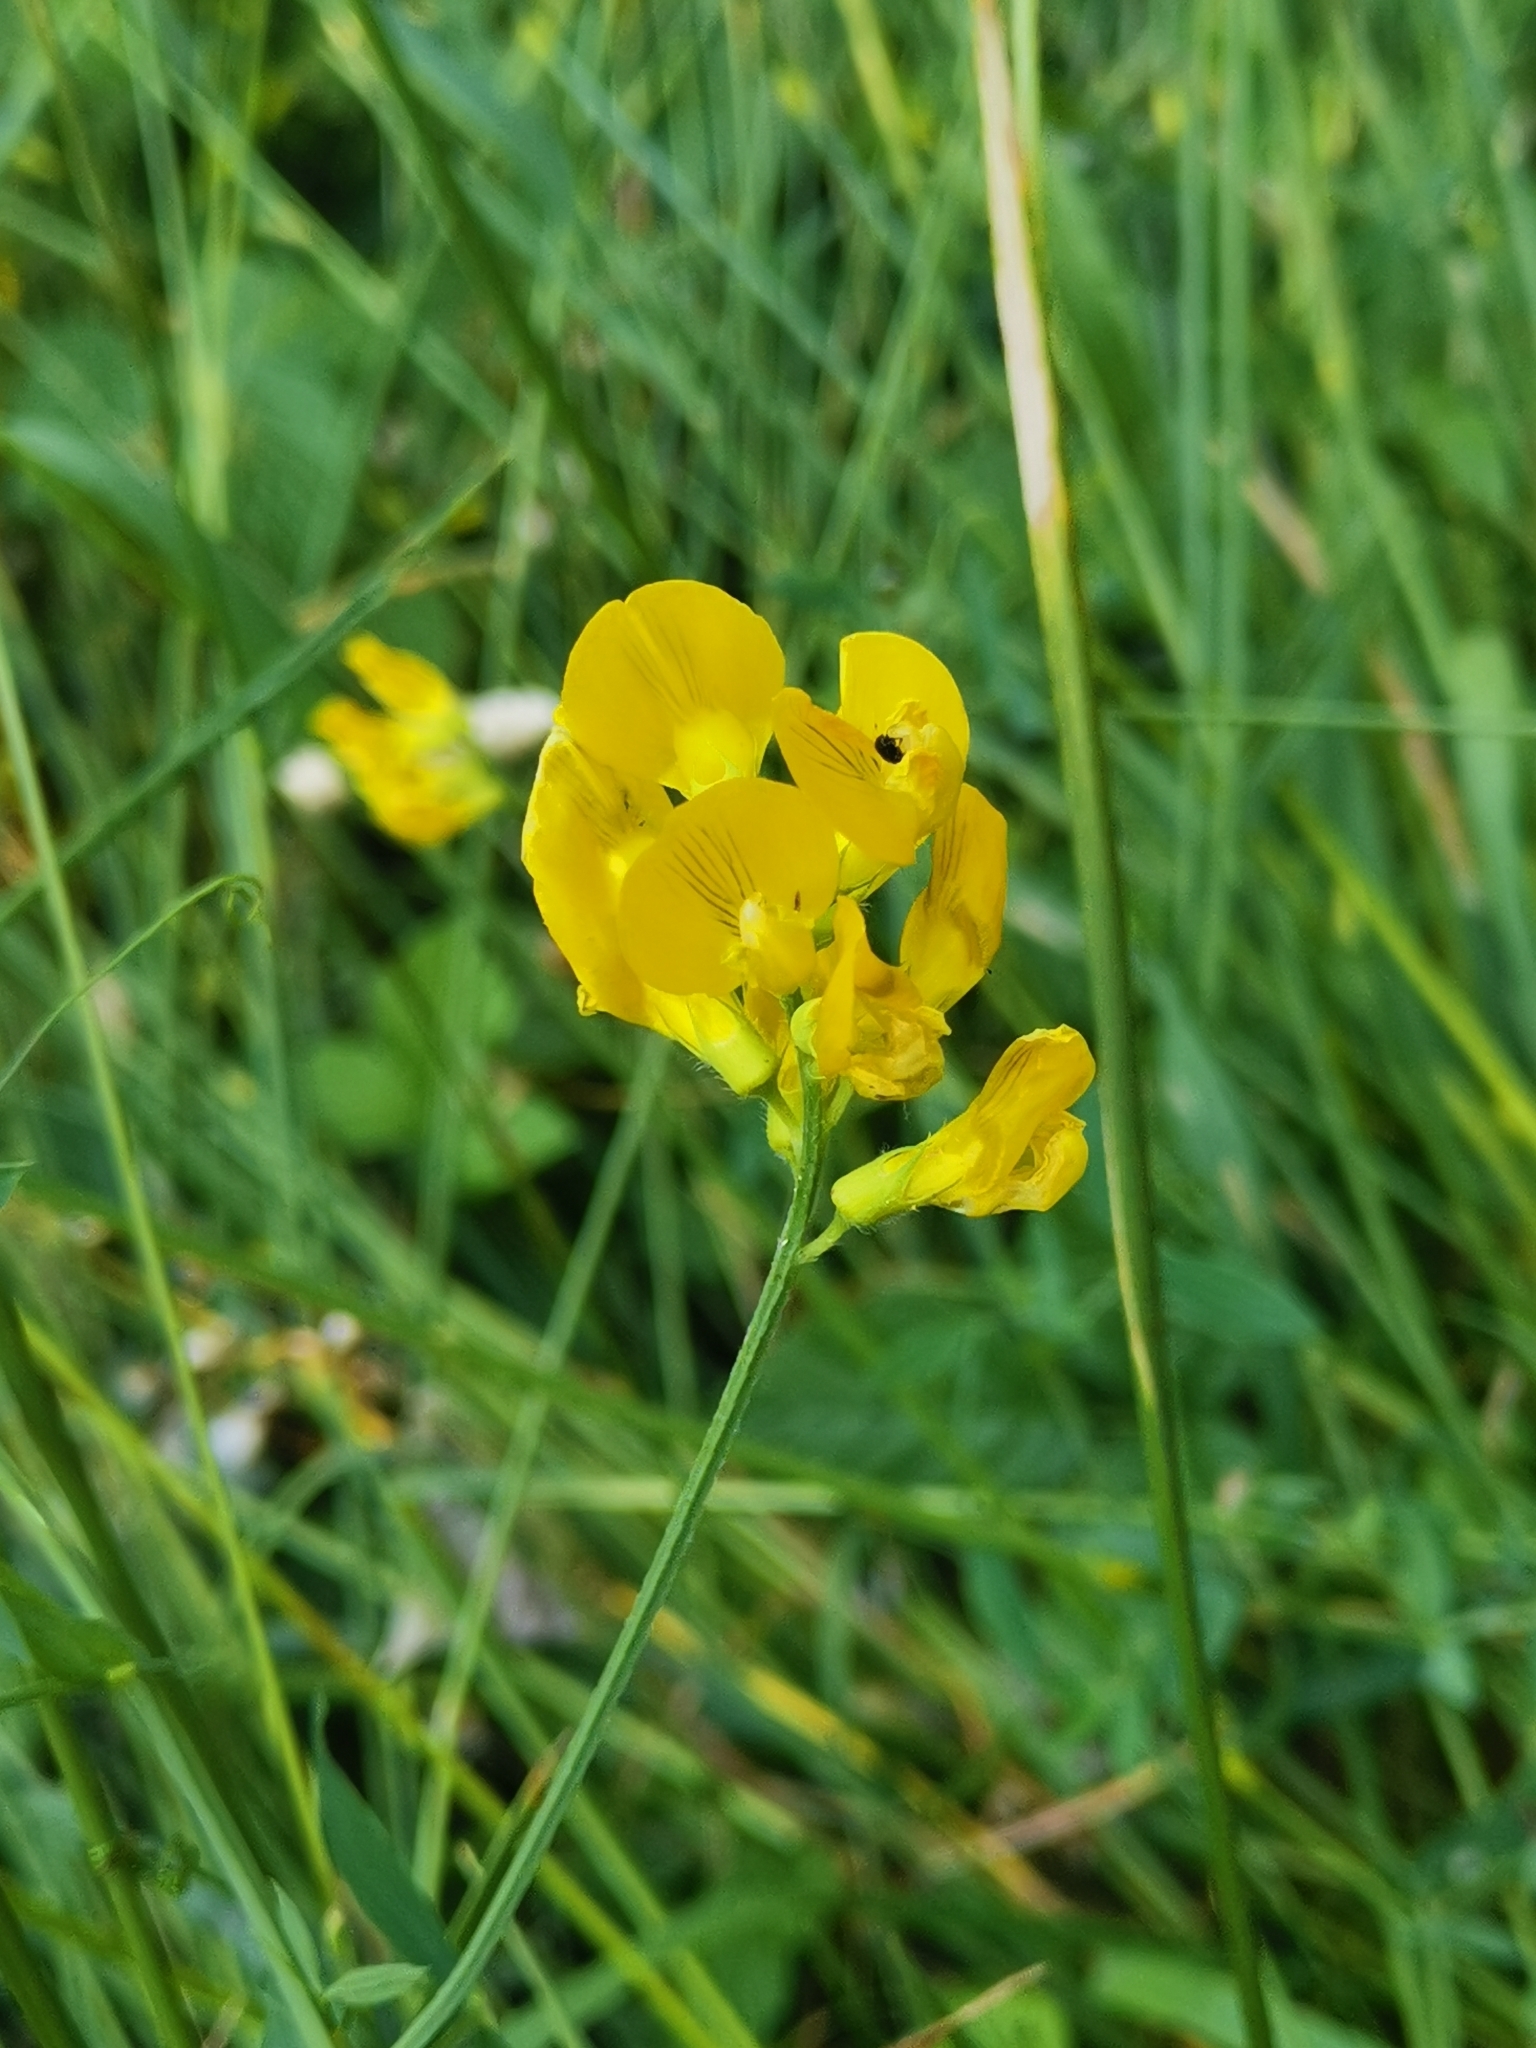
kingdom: Plantae
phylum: Tracheophyta
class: Magnoliopsida
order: Fabales
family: Fabaceae
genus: Lathyrus
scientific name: Lathyrus pratensis
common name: Meadow vetchling
